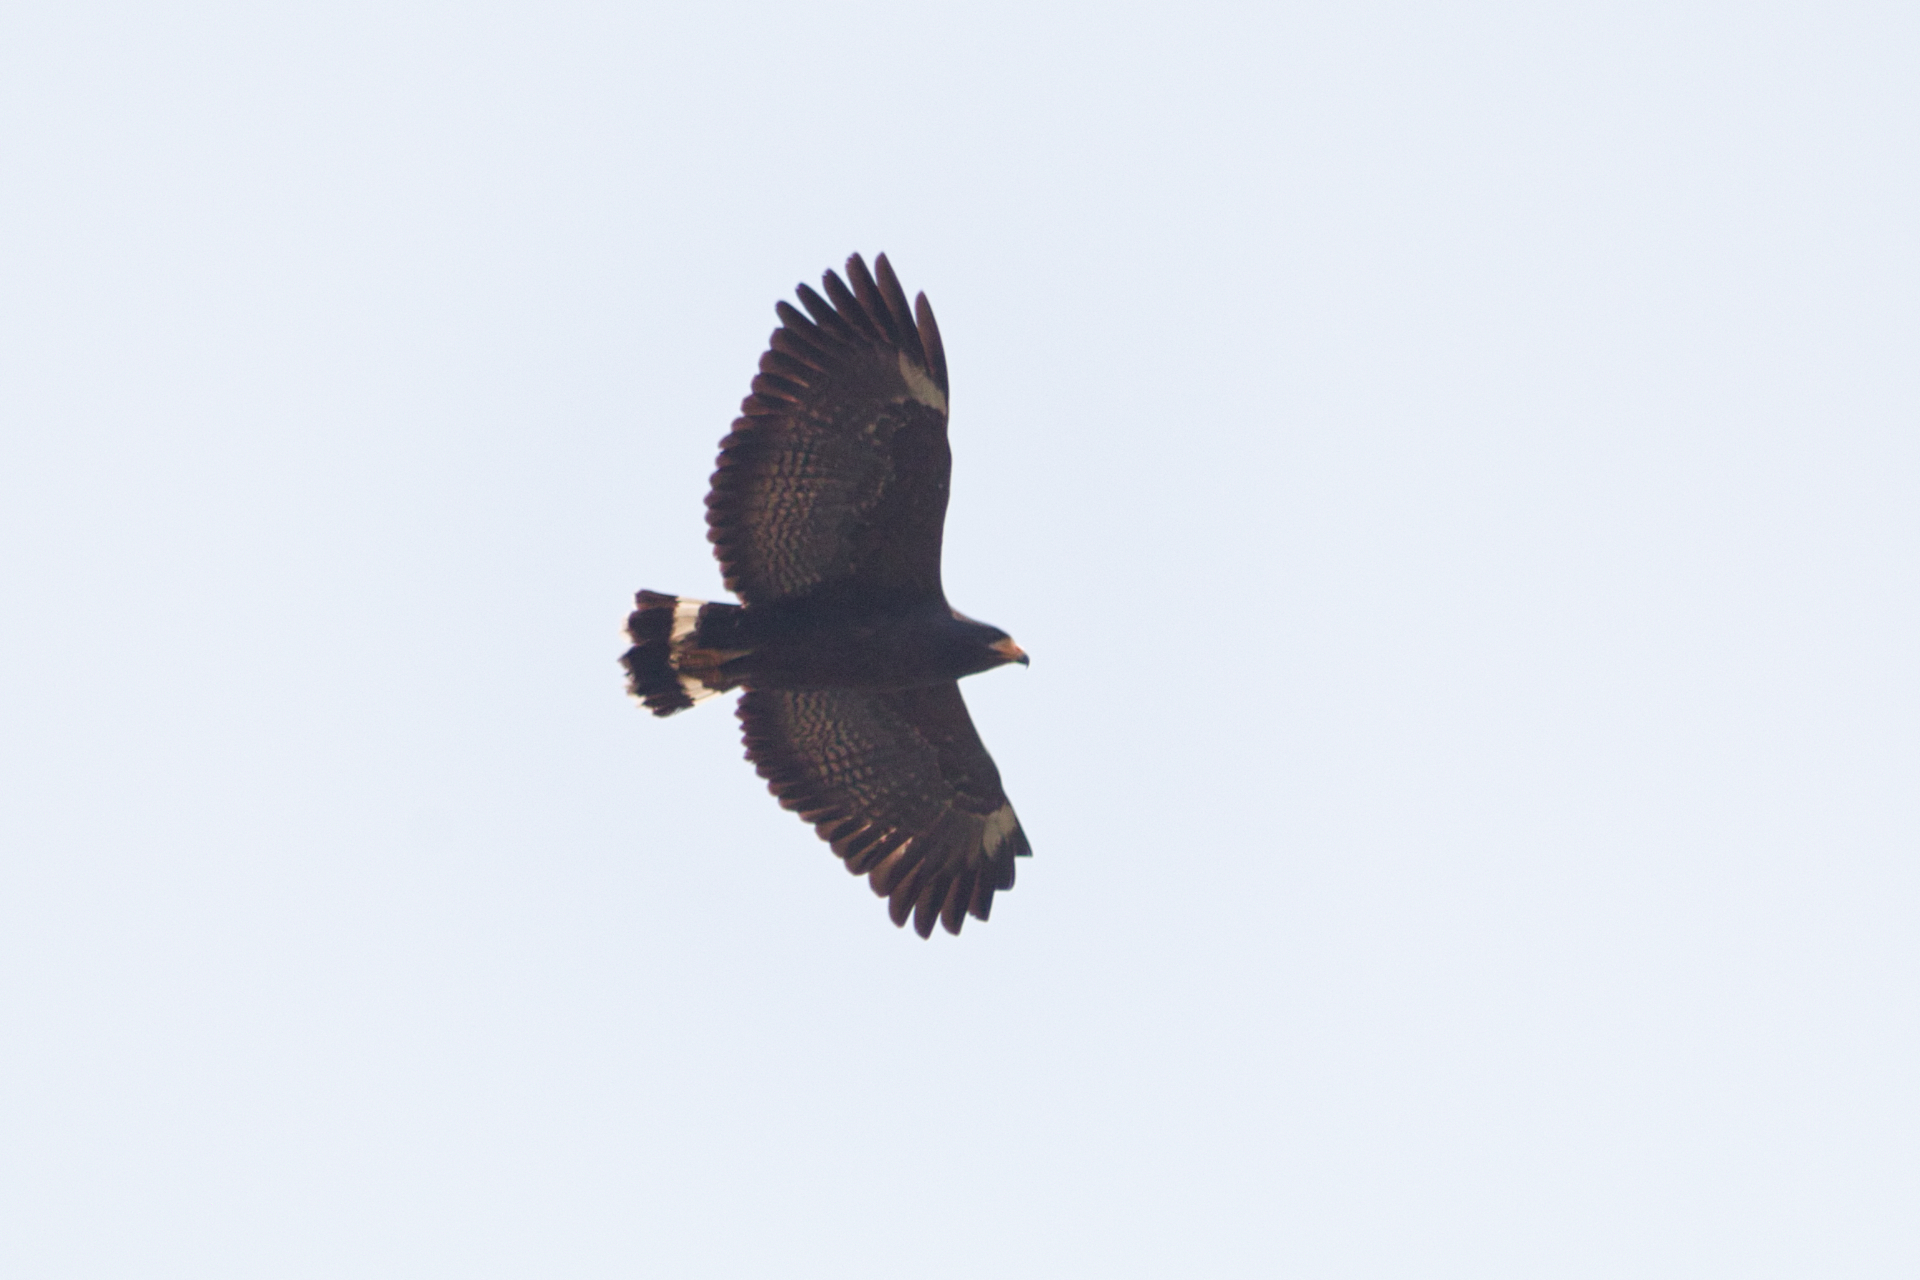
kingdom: Animalia
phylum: Chordata
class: Aves
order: Accipitriformes
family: Accipitridae
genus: Buteogallus
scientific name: Buteogallus anthracinus
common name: Common black hawk
